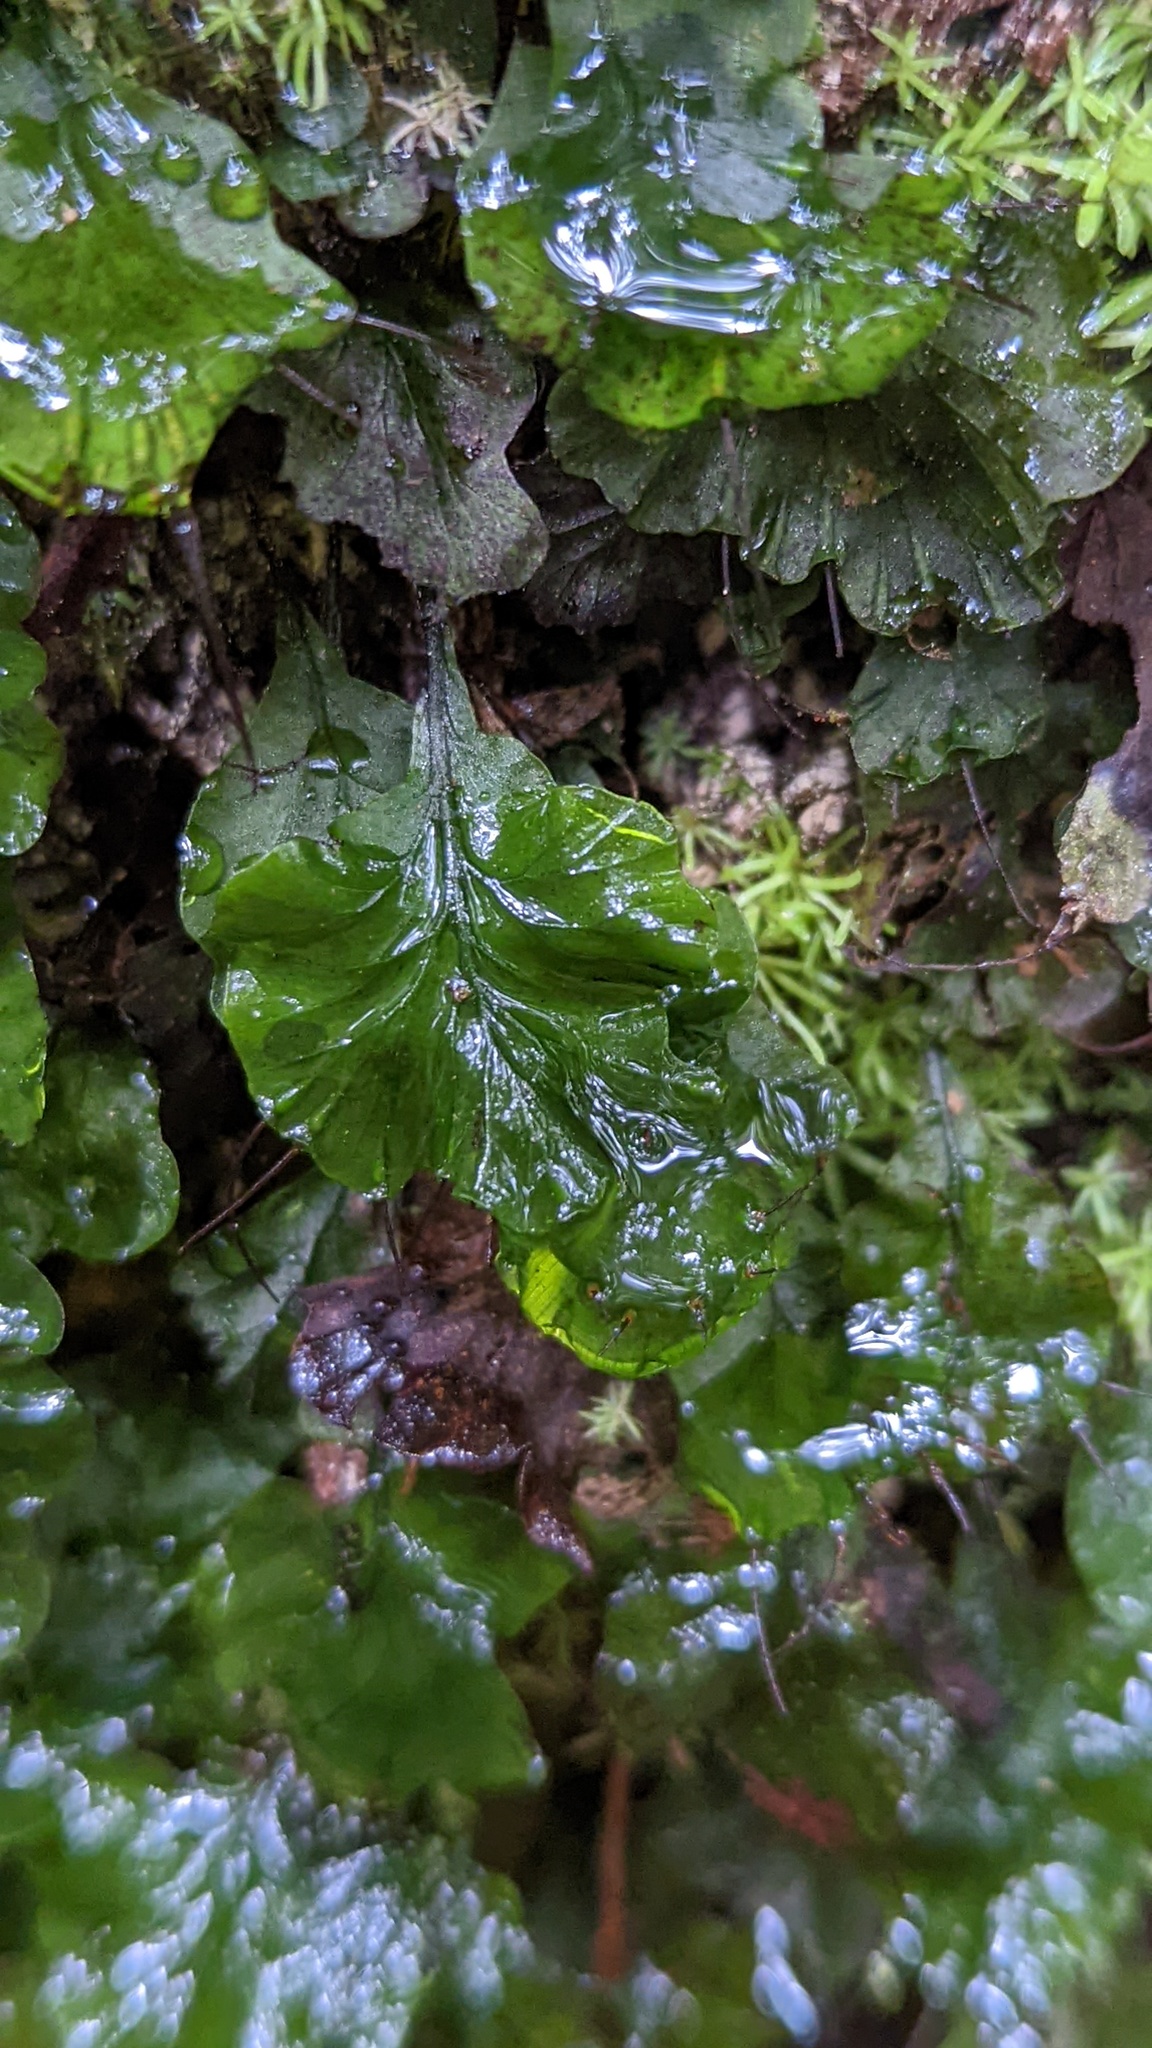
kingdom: Plantae
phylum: Tracheophyta
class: Polypodiopsida
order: Hymenophyllales
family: Hymenophyllaceae
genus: Didymoglossum
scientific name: Didymoglossum godmanii
